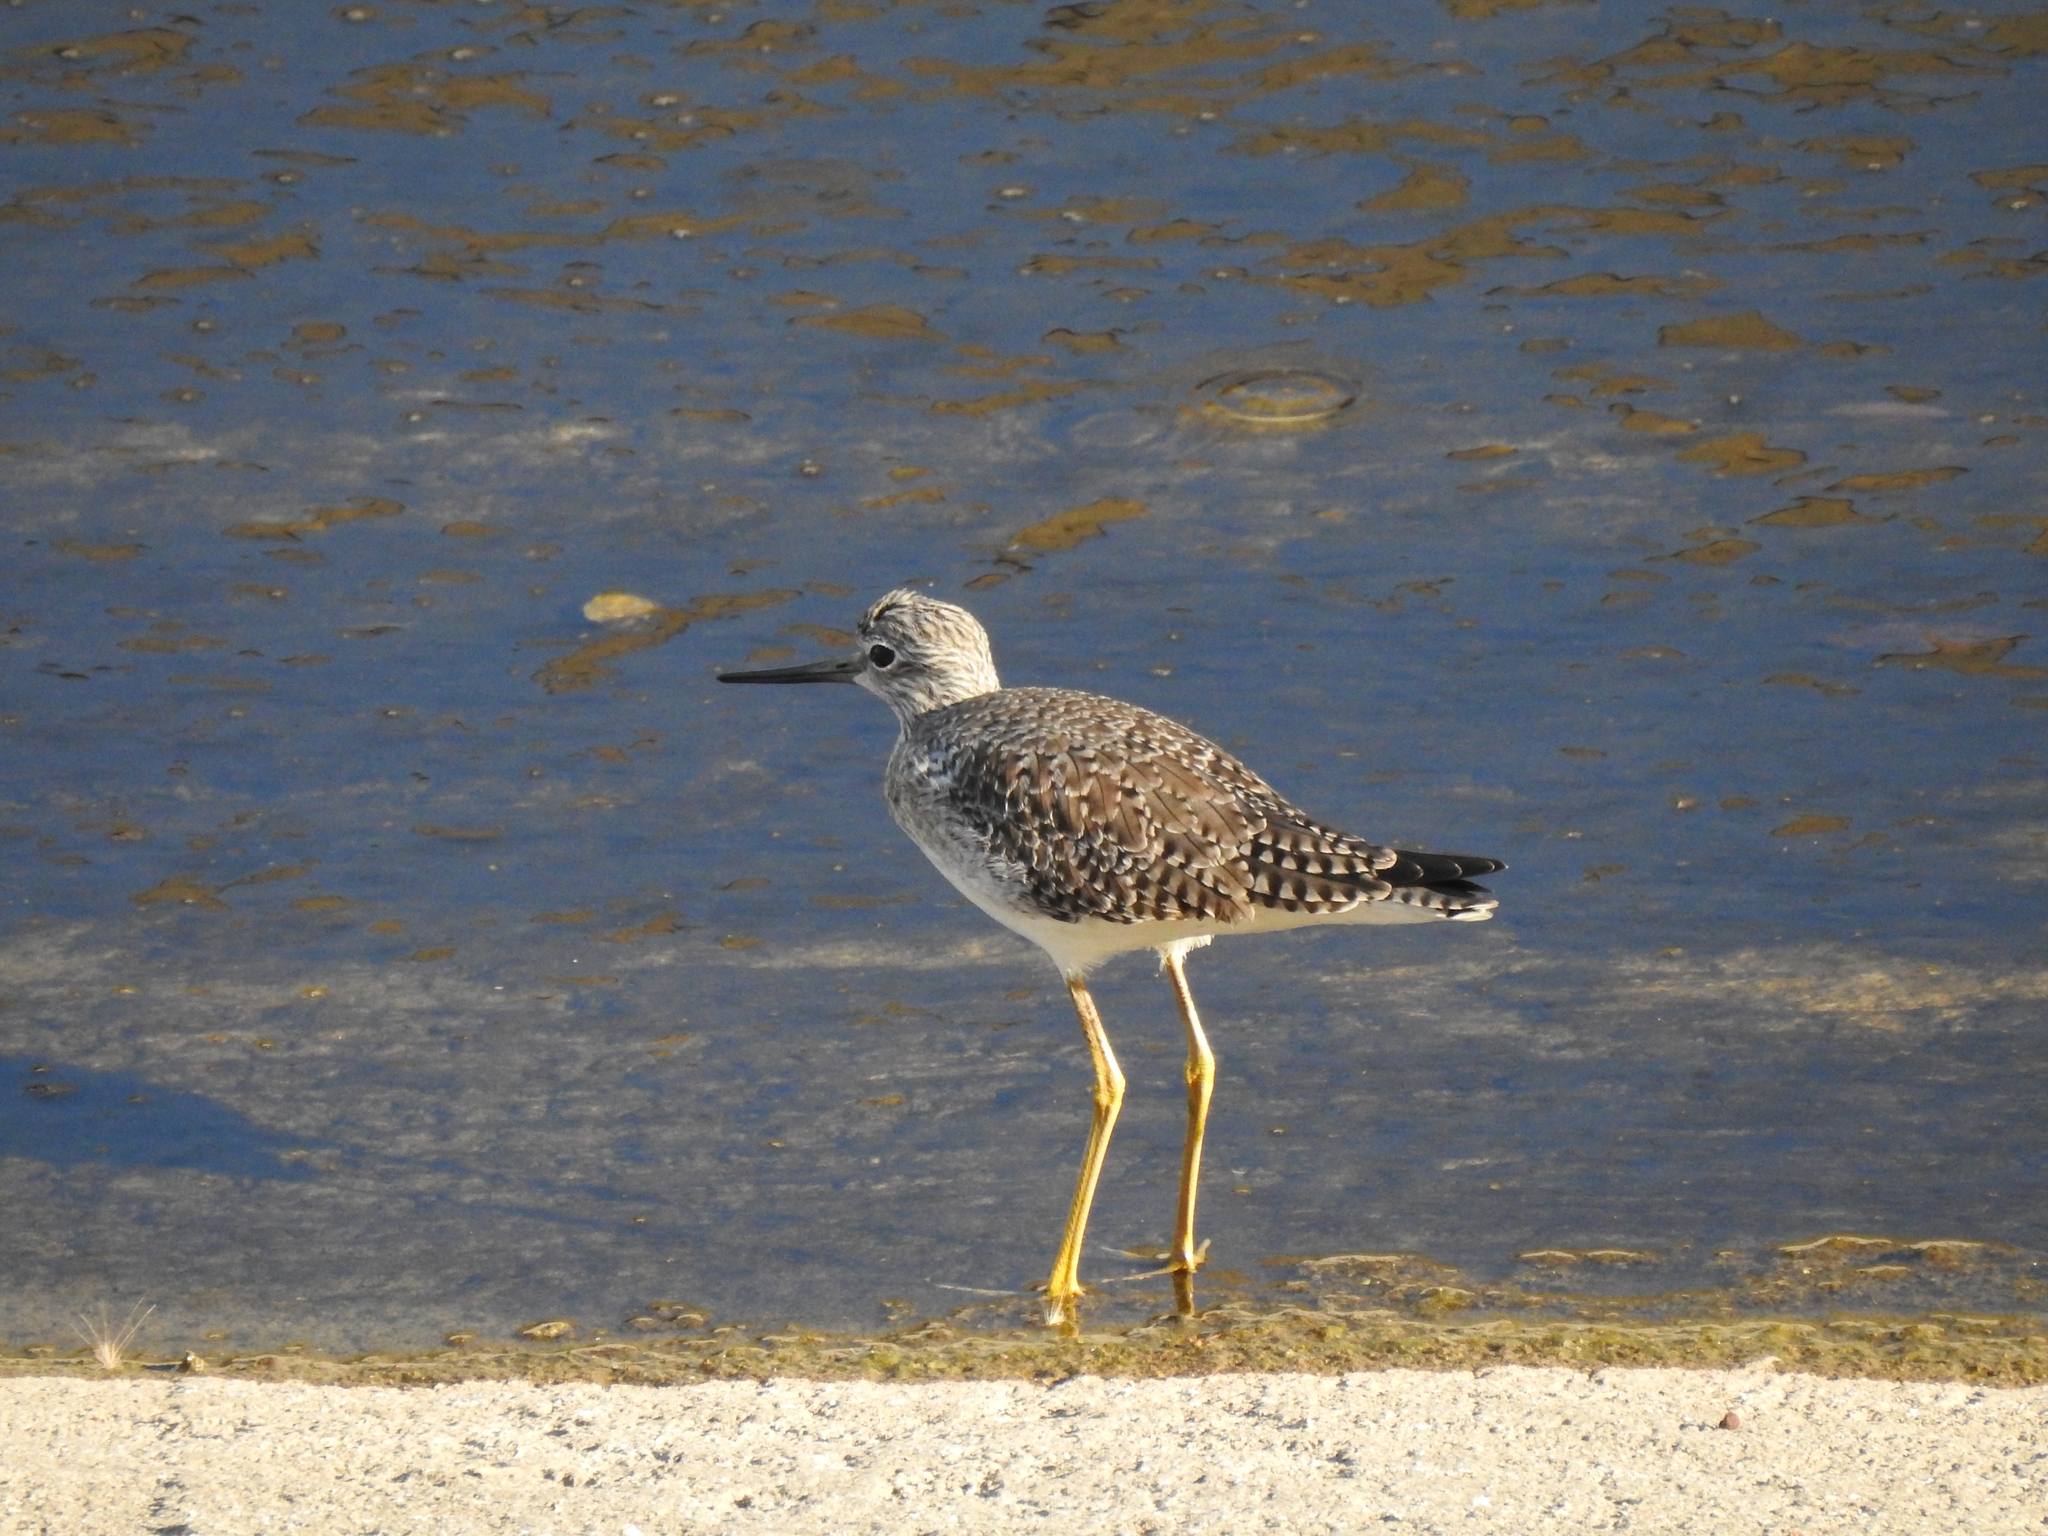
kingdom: Animalia
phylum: Chordata
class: Aves
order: Charadriiformes
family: Scolopacidae
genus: Tringa
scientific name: Tringa melanoleuca
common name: Greater yellowlegs
